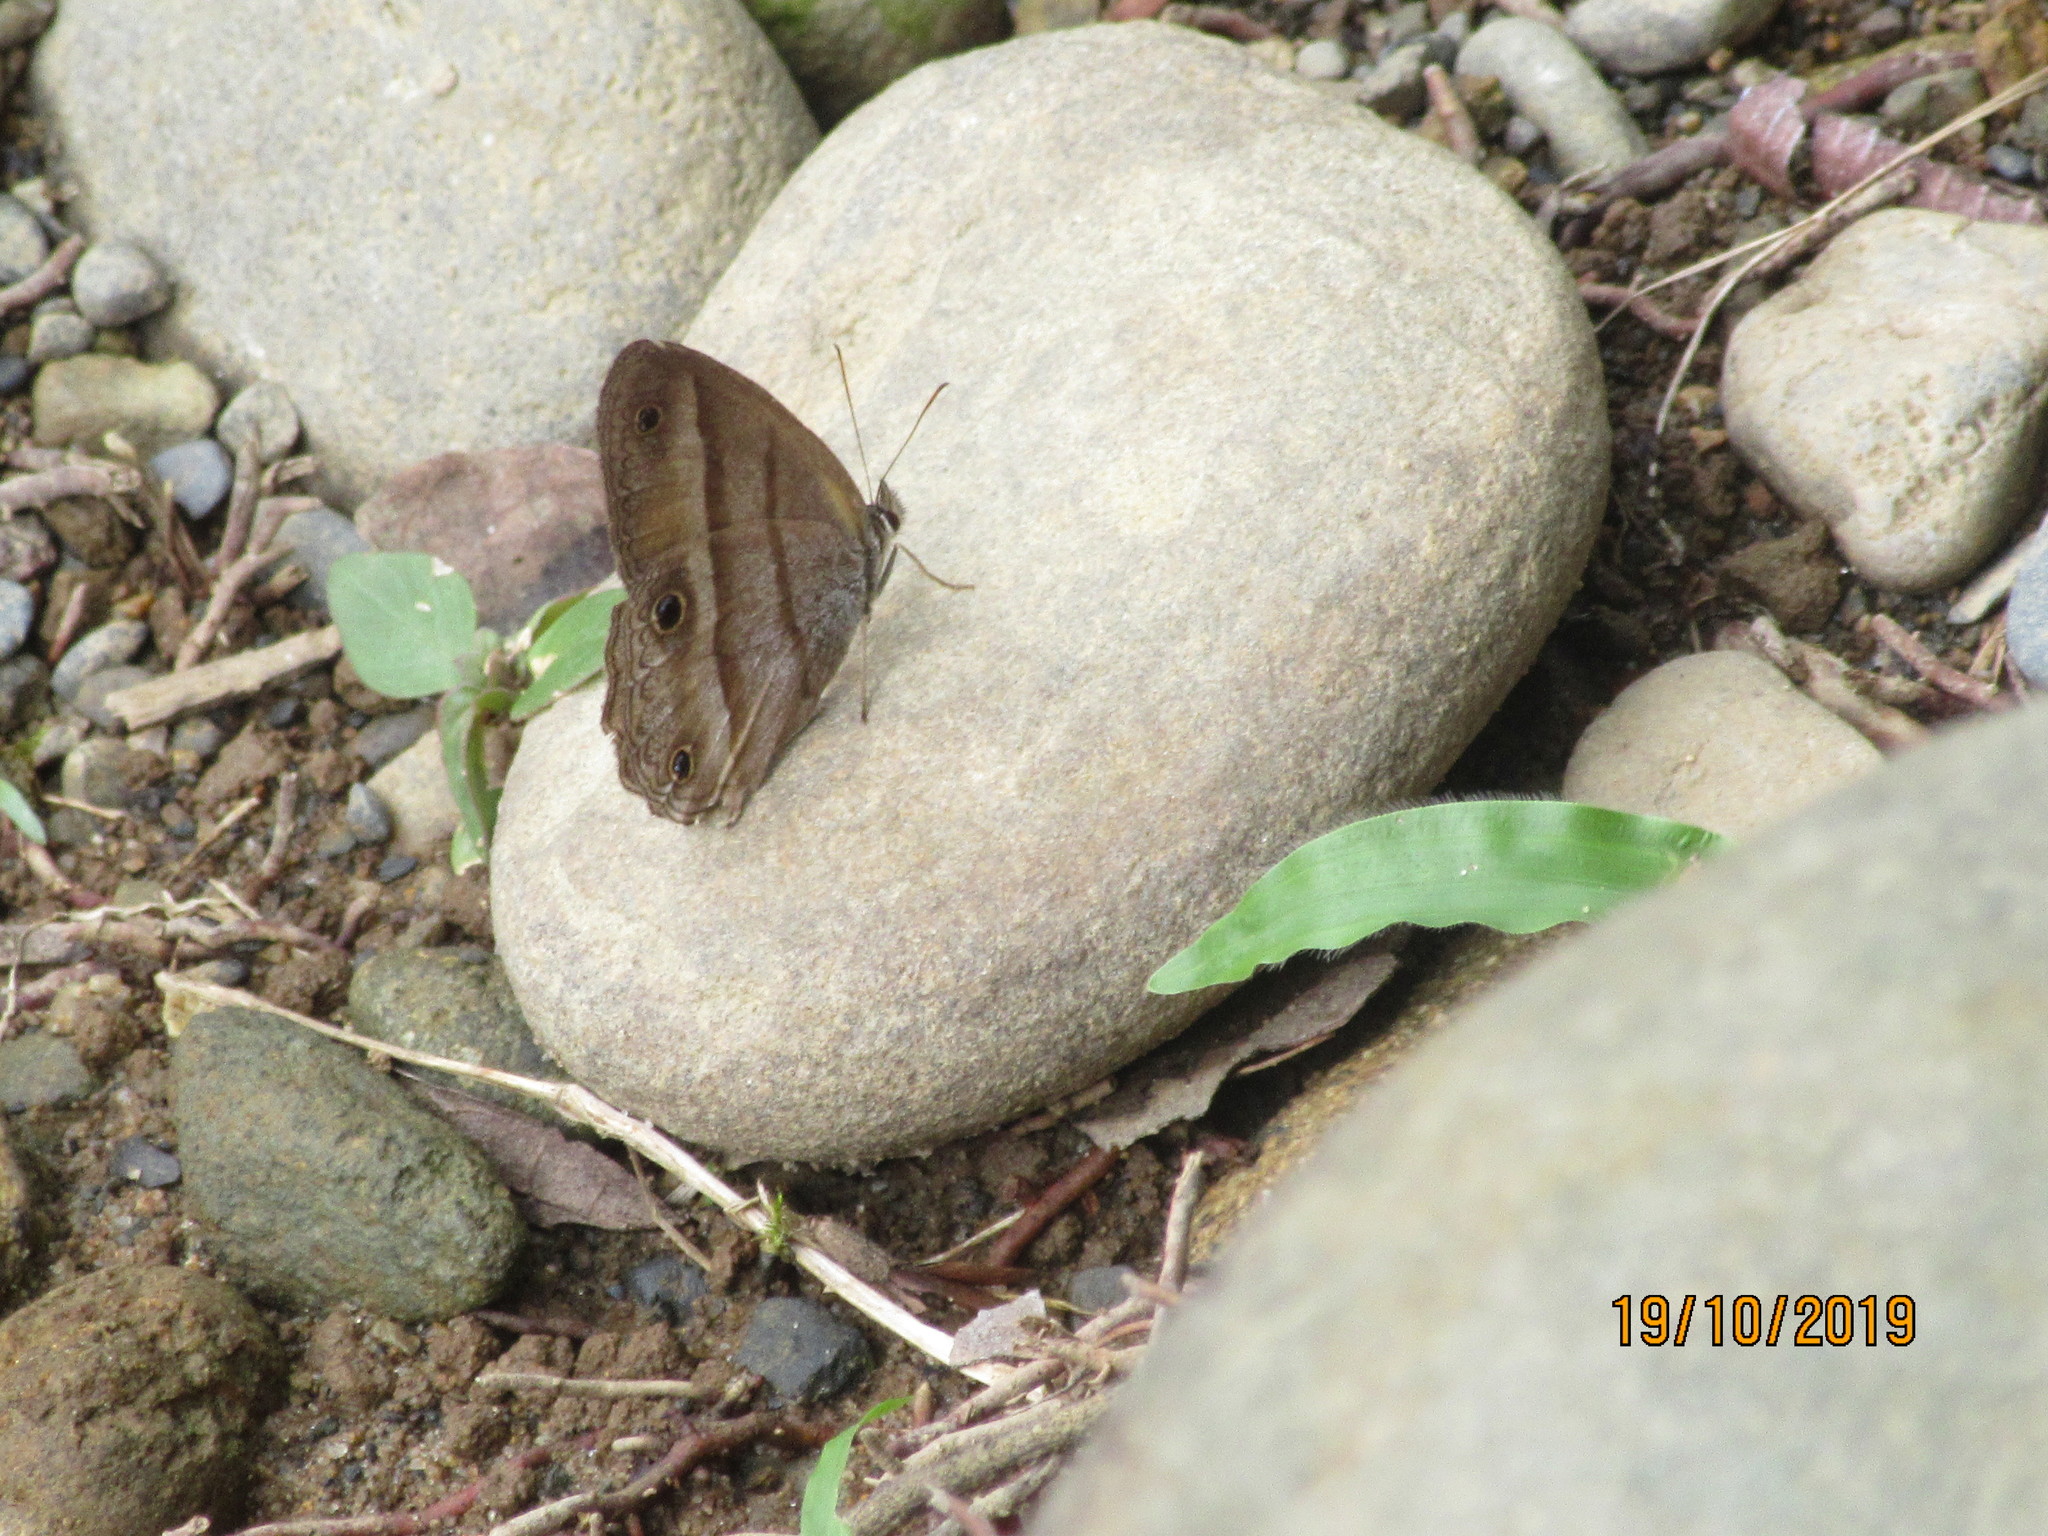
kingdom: Animalia
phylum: Arthropoda
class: Insecta
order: Lepidoptera
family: Nymphalidae
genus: Argyreuptychia
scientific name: Argyreuptychia penelope
